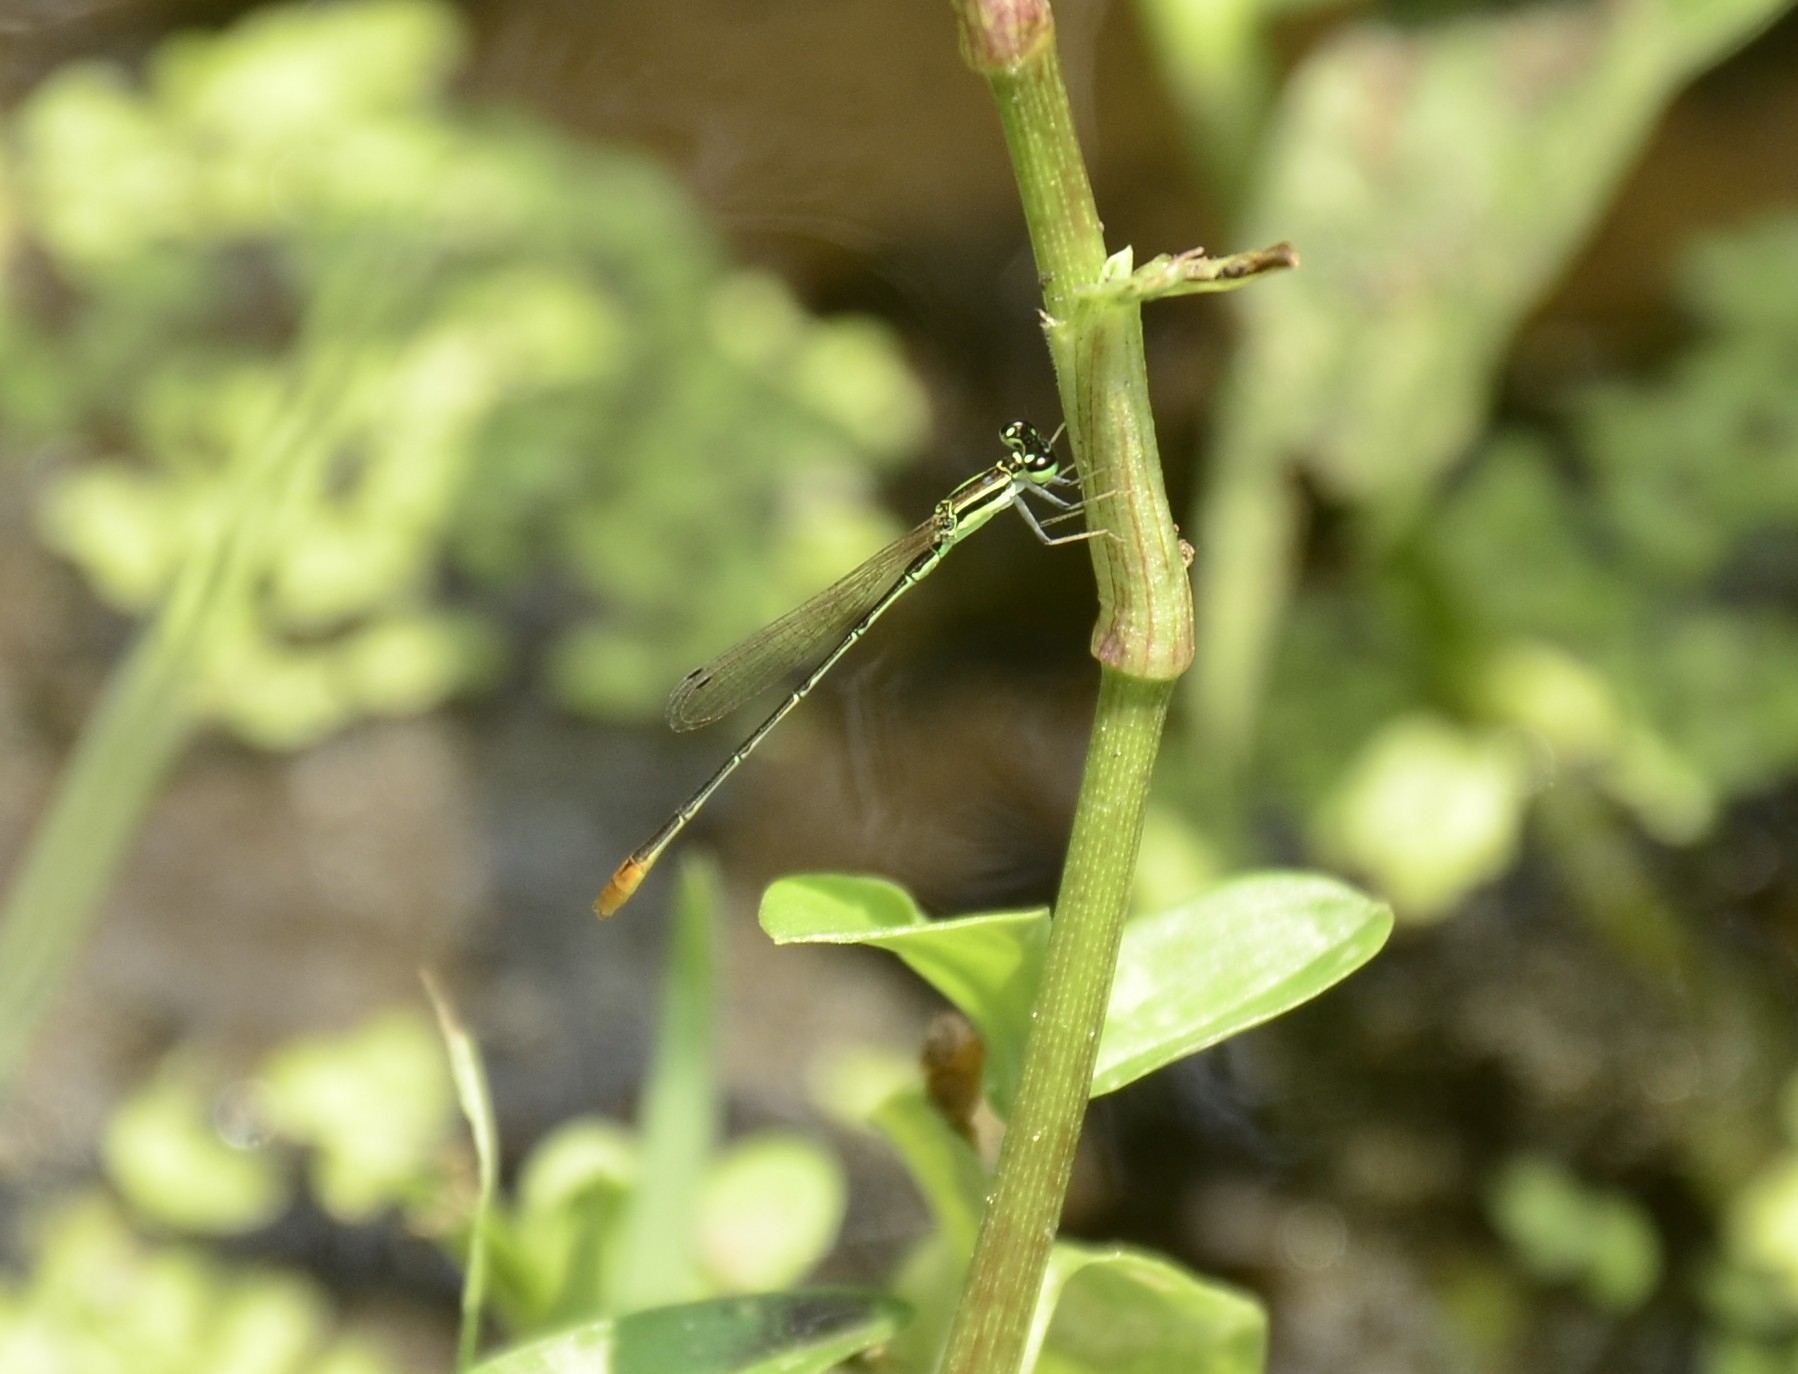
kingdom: Animalia
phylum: Arthropoda
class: Insecta
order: Odonata
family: Coenagrionidae
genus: Agriocnemis
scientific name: Agriocnemis pygmaea
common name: Pygmy wisp
